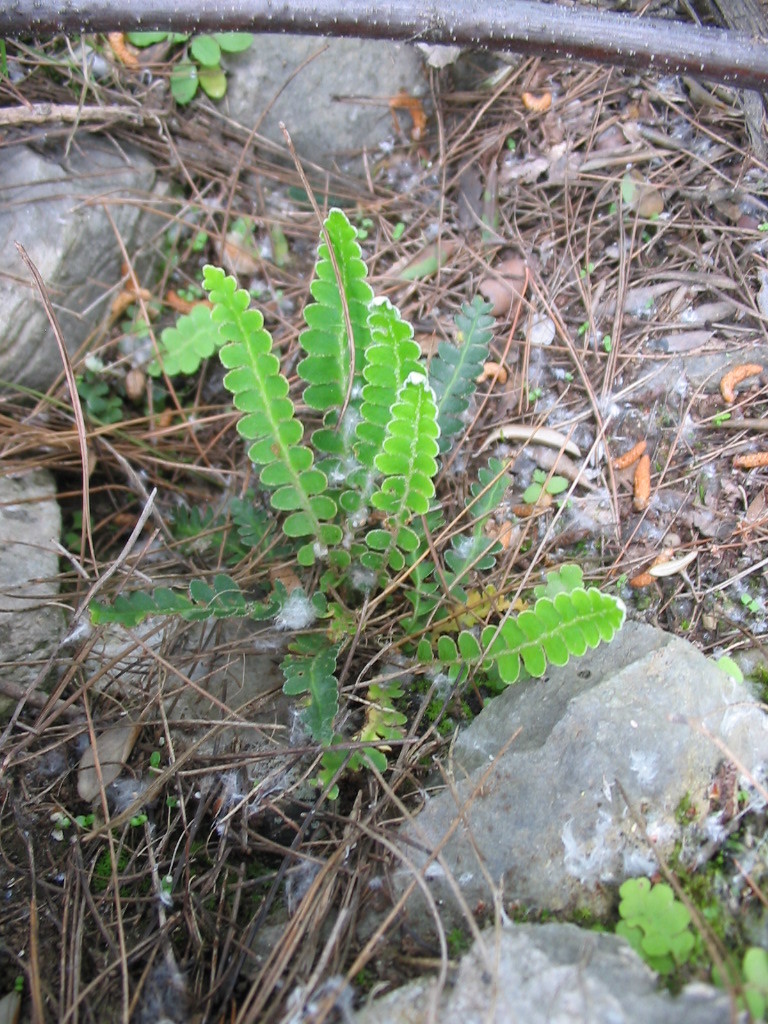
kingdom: Plantae
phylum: Tracheophyta
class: Polypodiopsida
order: Polypodiales
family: Aspleniaceae
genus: Asplenium
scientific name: Asplenium ceterach
